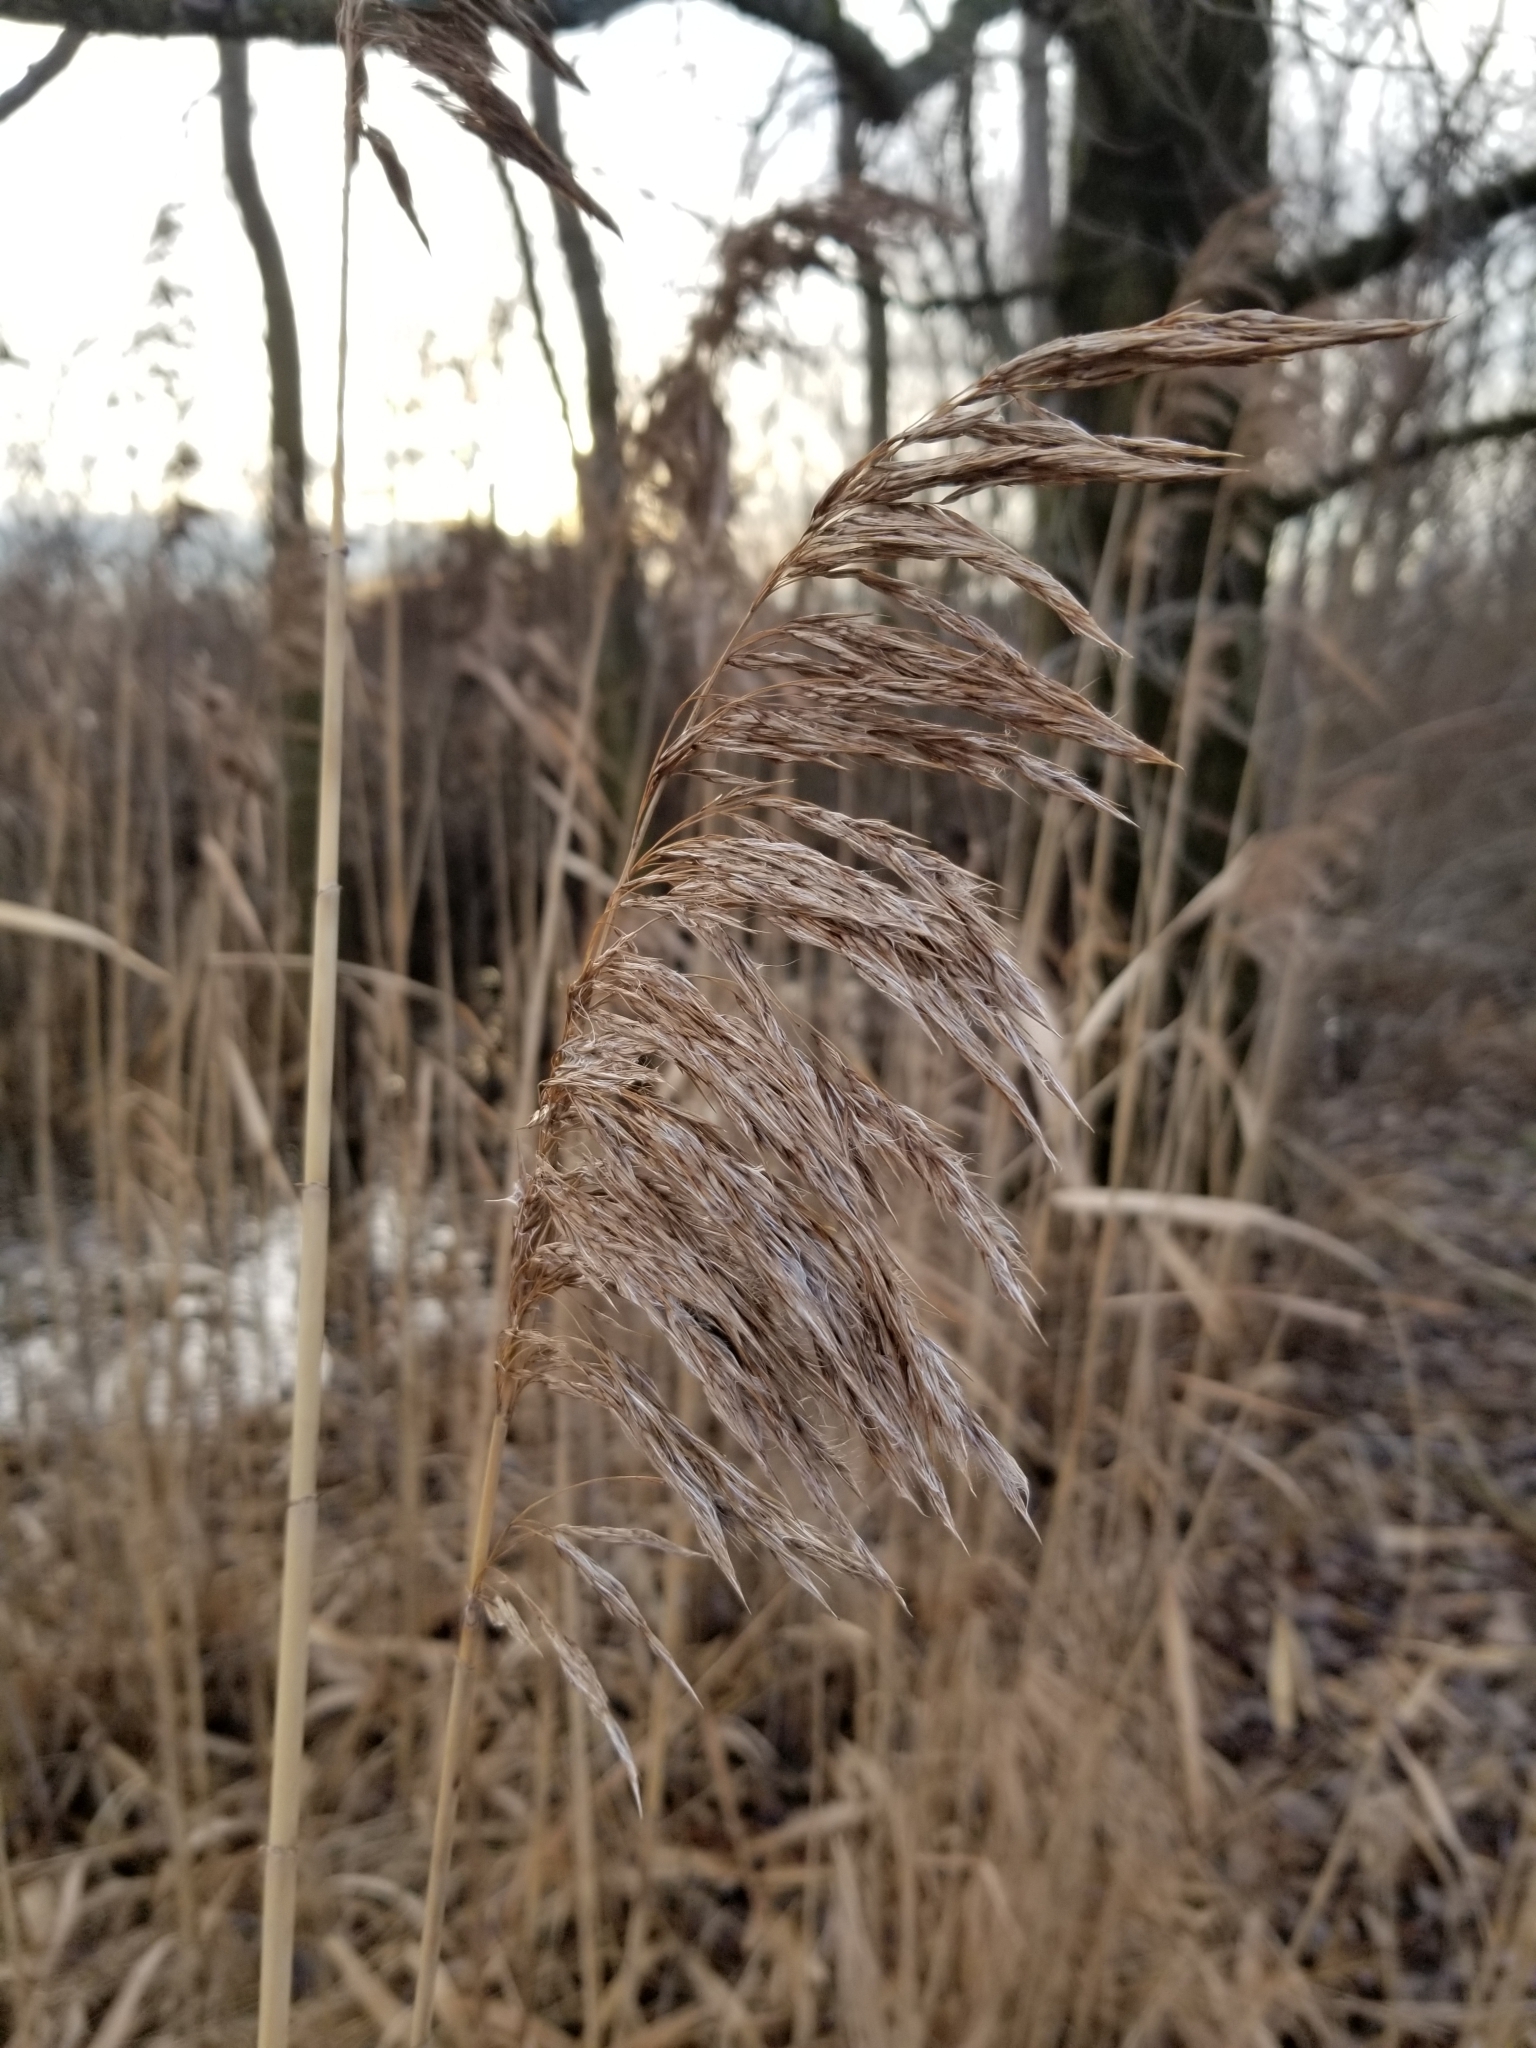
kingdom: Plantae
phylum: Tracheophyta
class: Liliopsida
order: Poales
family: Poaceae
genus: Phragmites
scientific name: Phragmites australis
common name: Common reed
